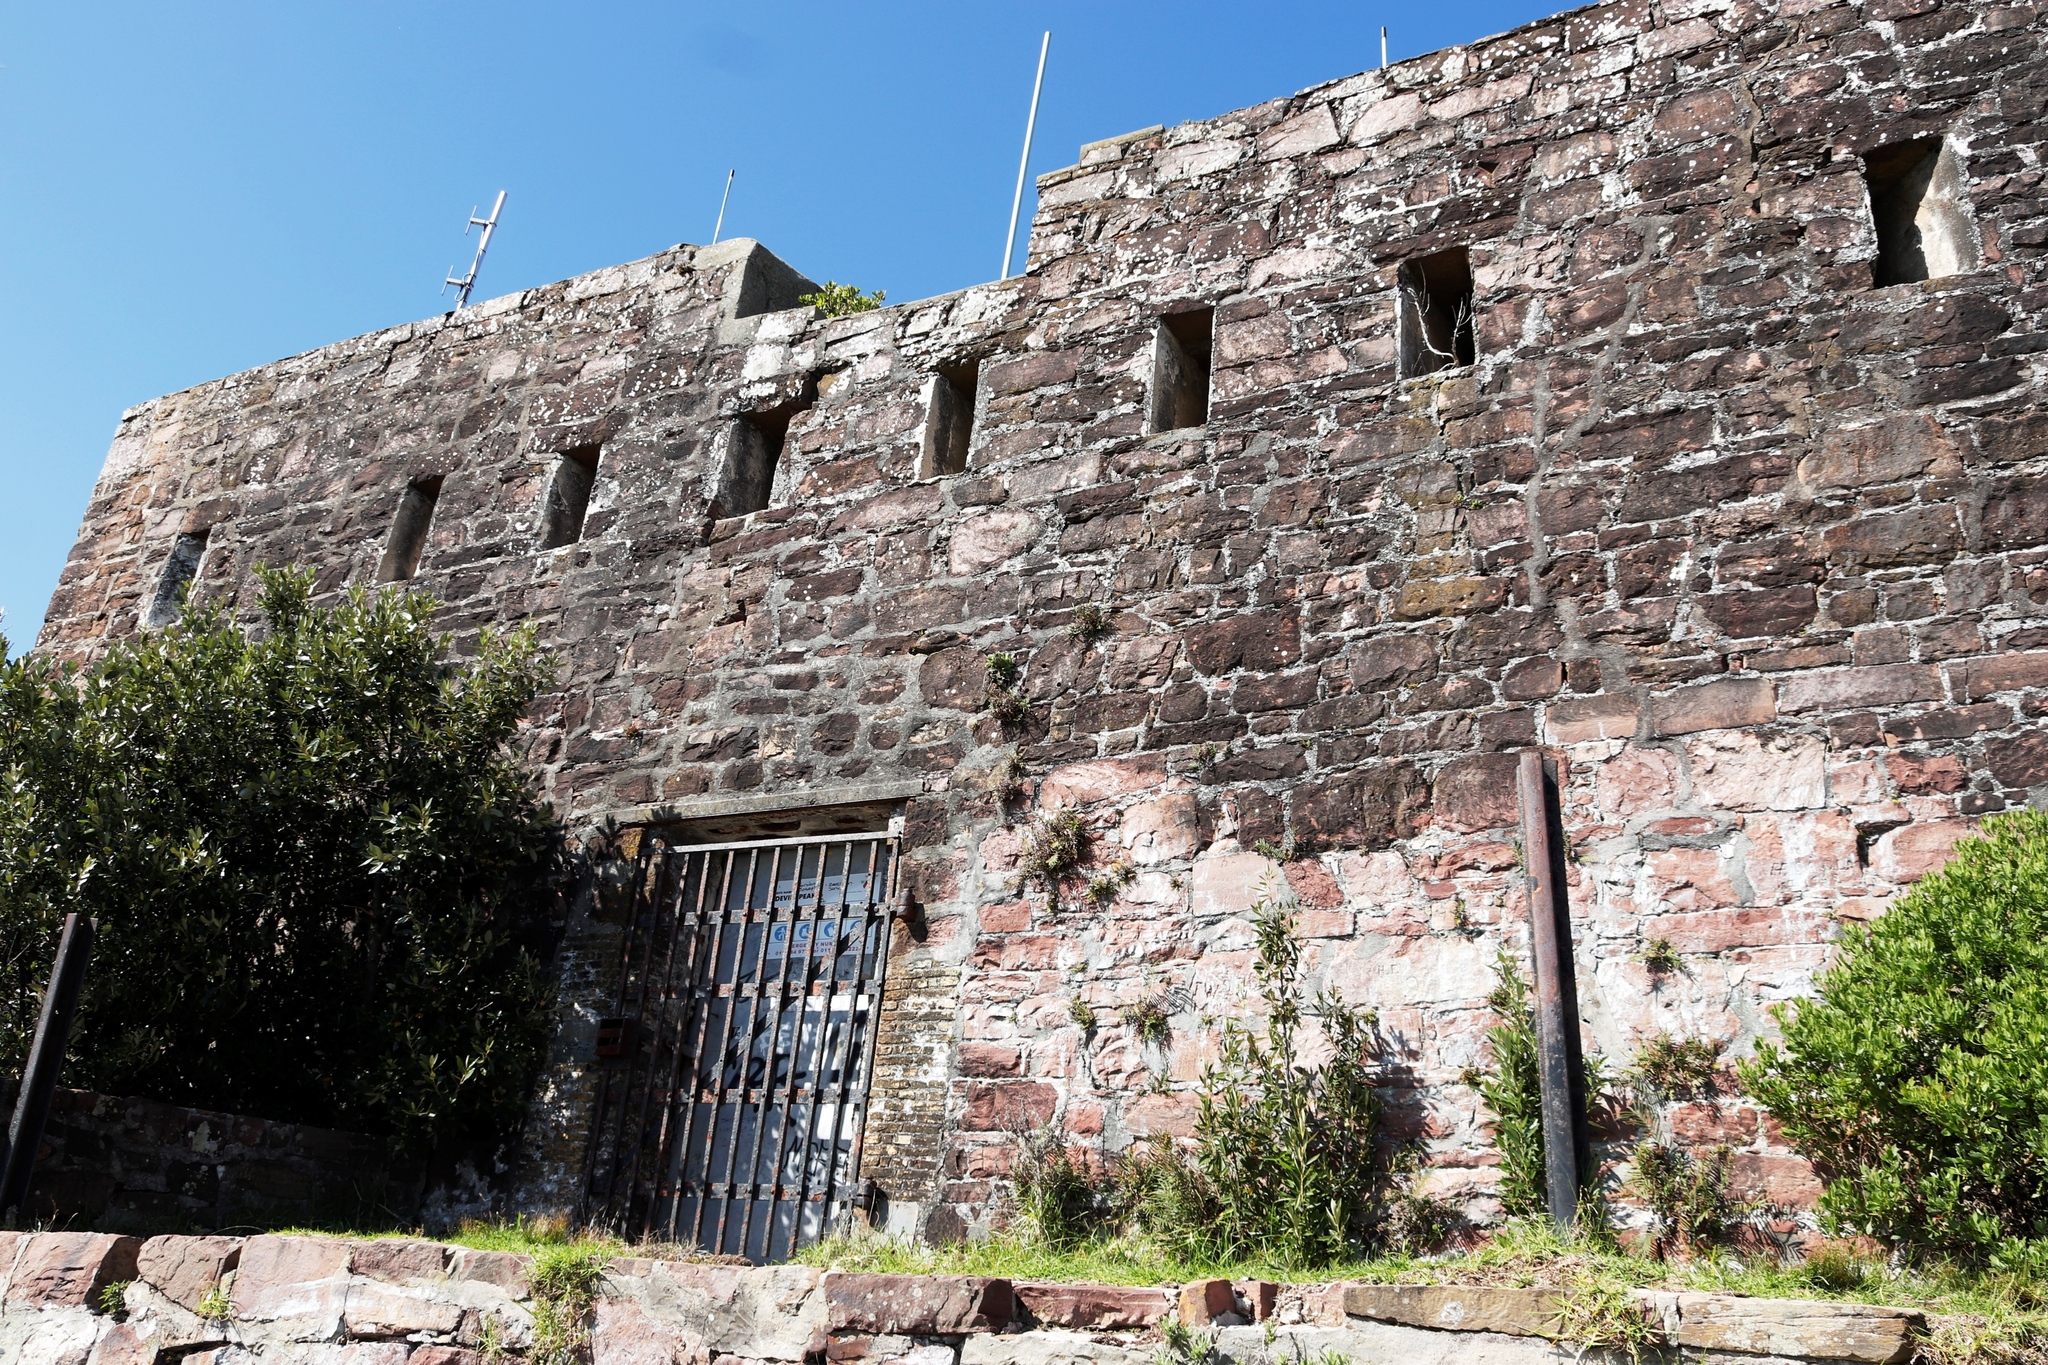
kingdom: Plantae
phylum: Tracheophyta
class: Polypodiopsida
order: Polypodiales
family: Pteridaceae
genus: Pteris
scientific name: Pteris vittata
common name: Ladder brake
